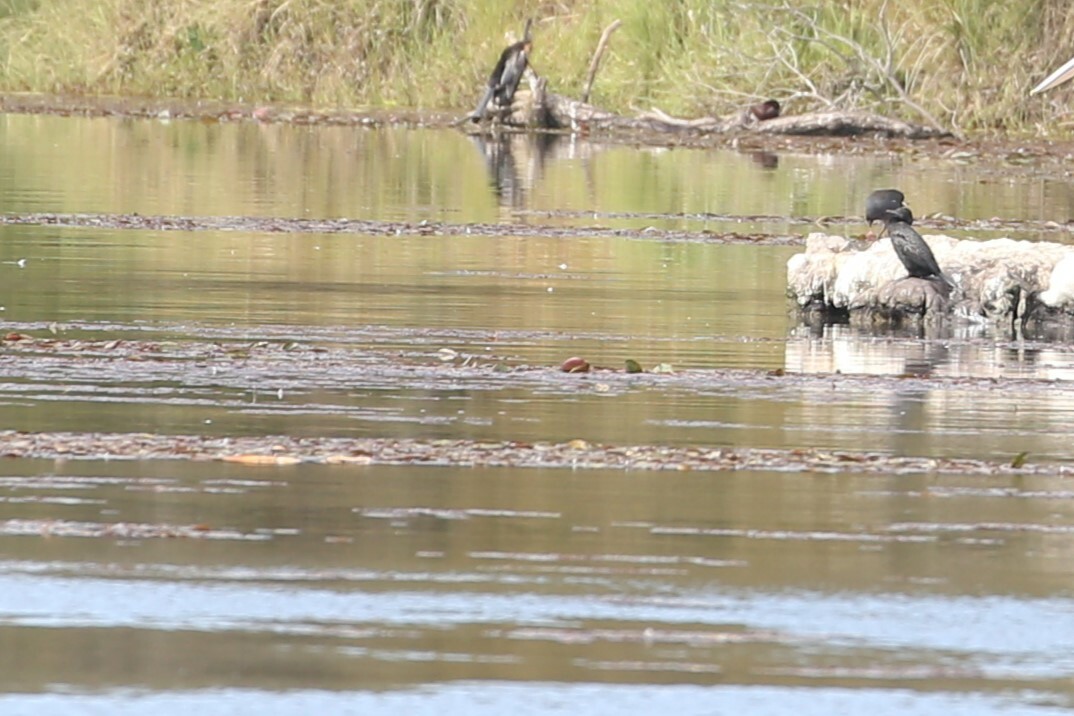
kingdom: Animalia
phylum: Chordata
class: Aves
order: Suliformes
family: Phalacrocoracidae
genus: Phalacrocorax
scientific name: Phalacrocorax sulcirostris
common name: Little black cormorant
